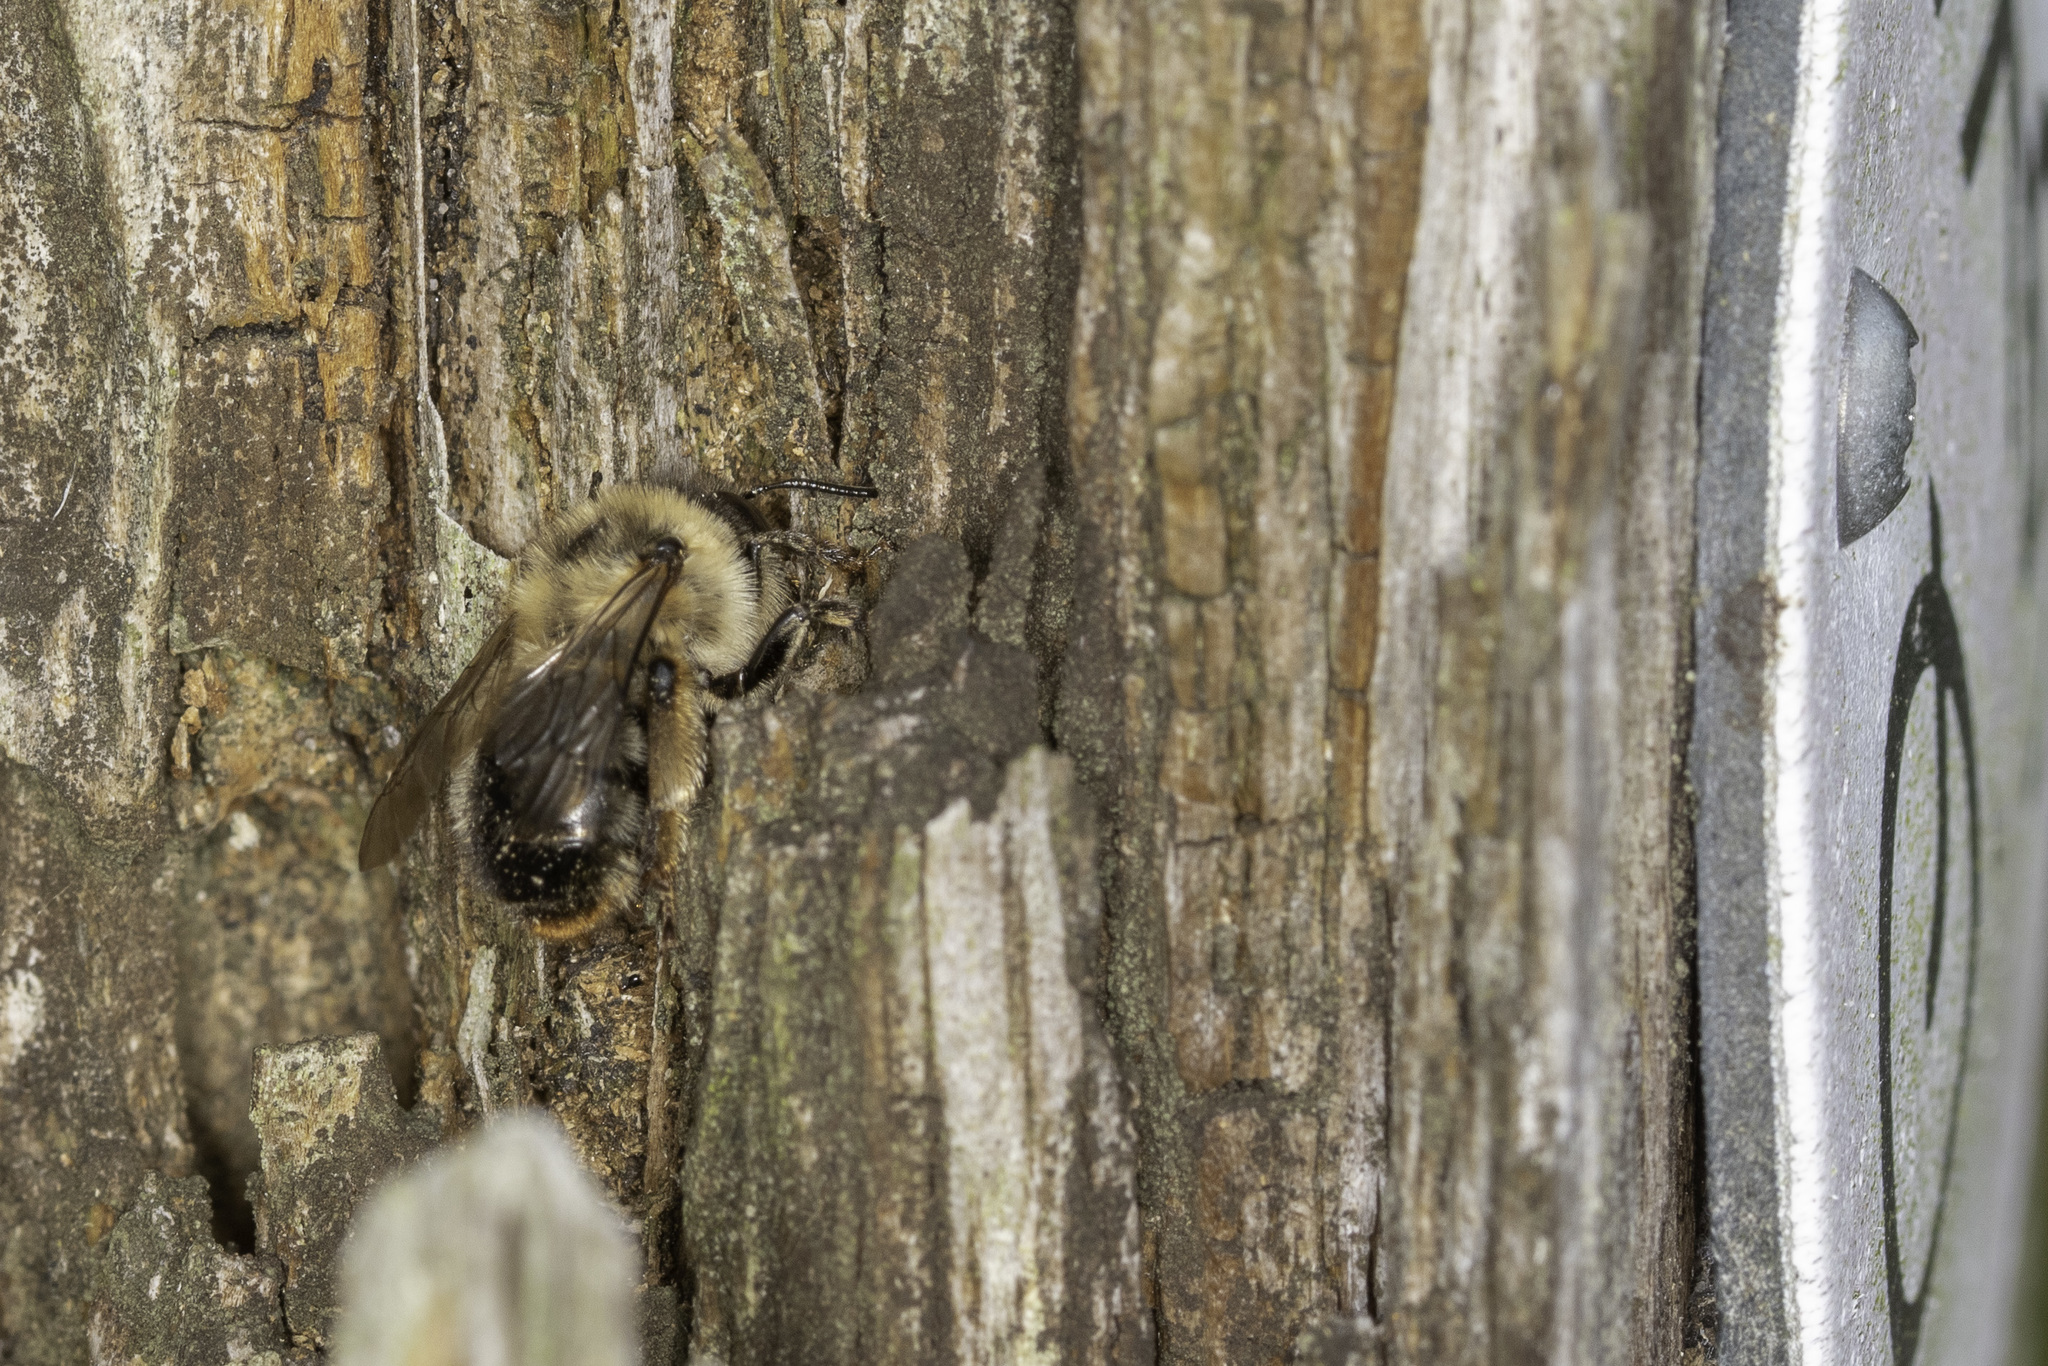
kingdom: Animalia
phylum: Arthropoda
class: Insecta
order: Hymenoptera
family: Apidae
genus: Anthophora
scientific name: Anthophora furcata
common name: Fork-tailed flower bee
